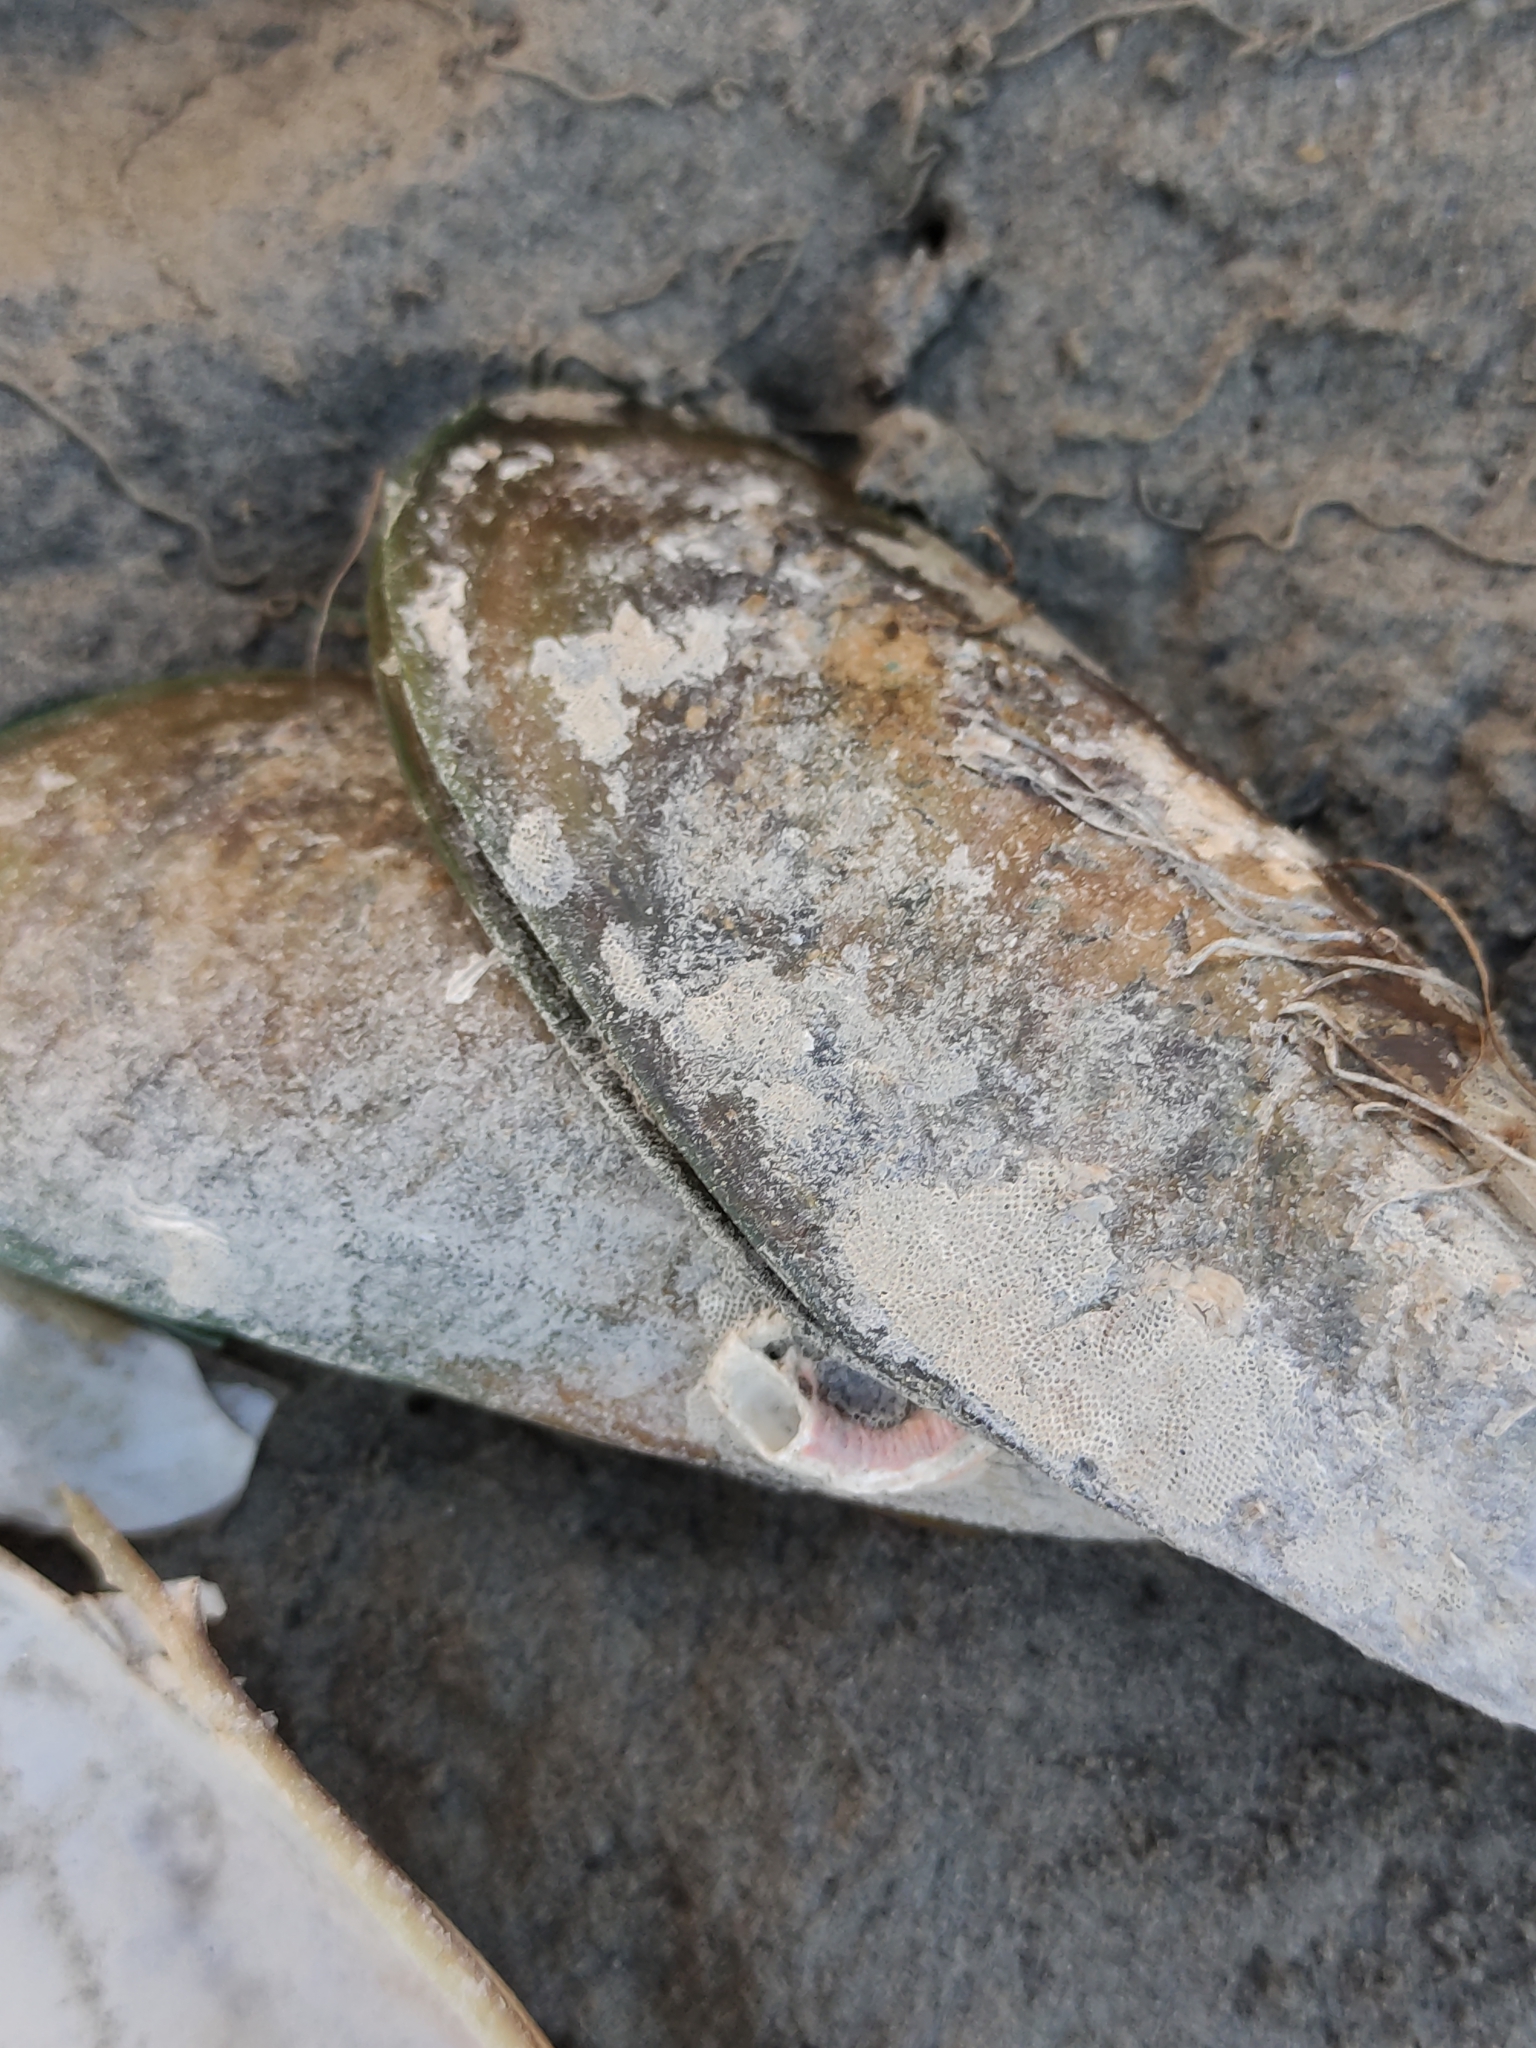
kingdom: Animalia
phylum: Mollusca
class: Bivalvia
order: Mytilida
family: Mytilidae
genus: Perna
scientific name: Perna canaliculus
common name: New zealand greenshelltm
